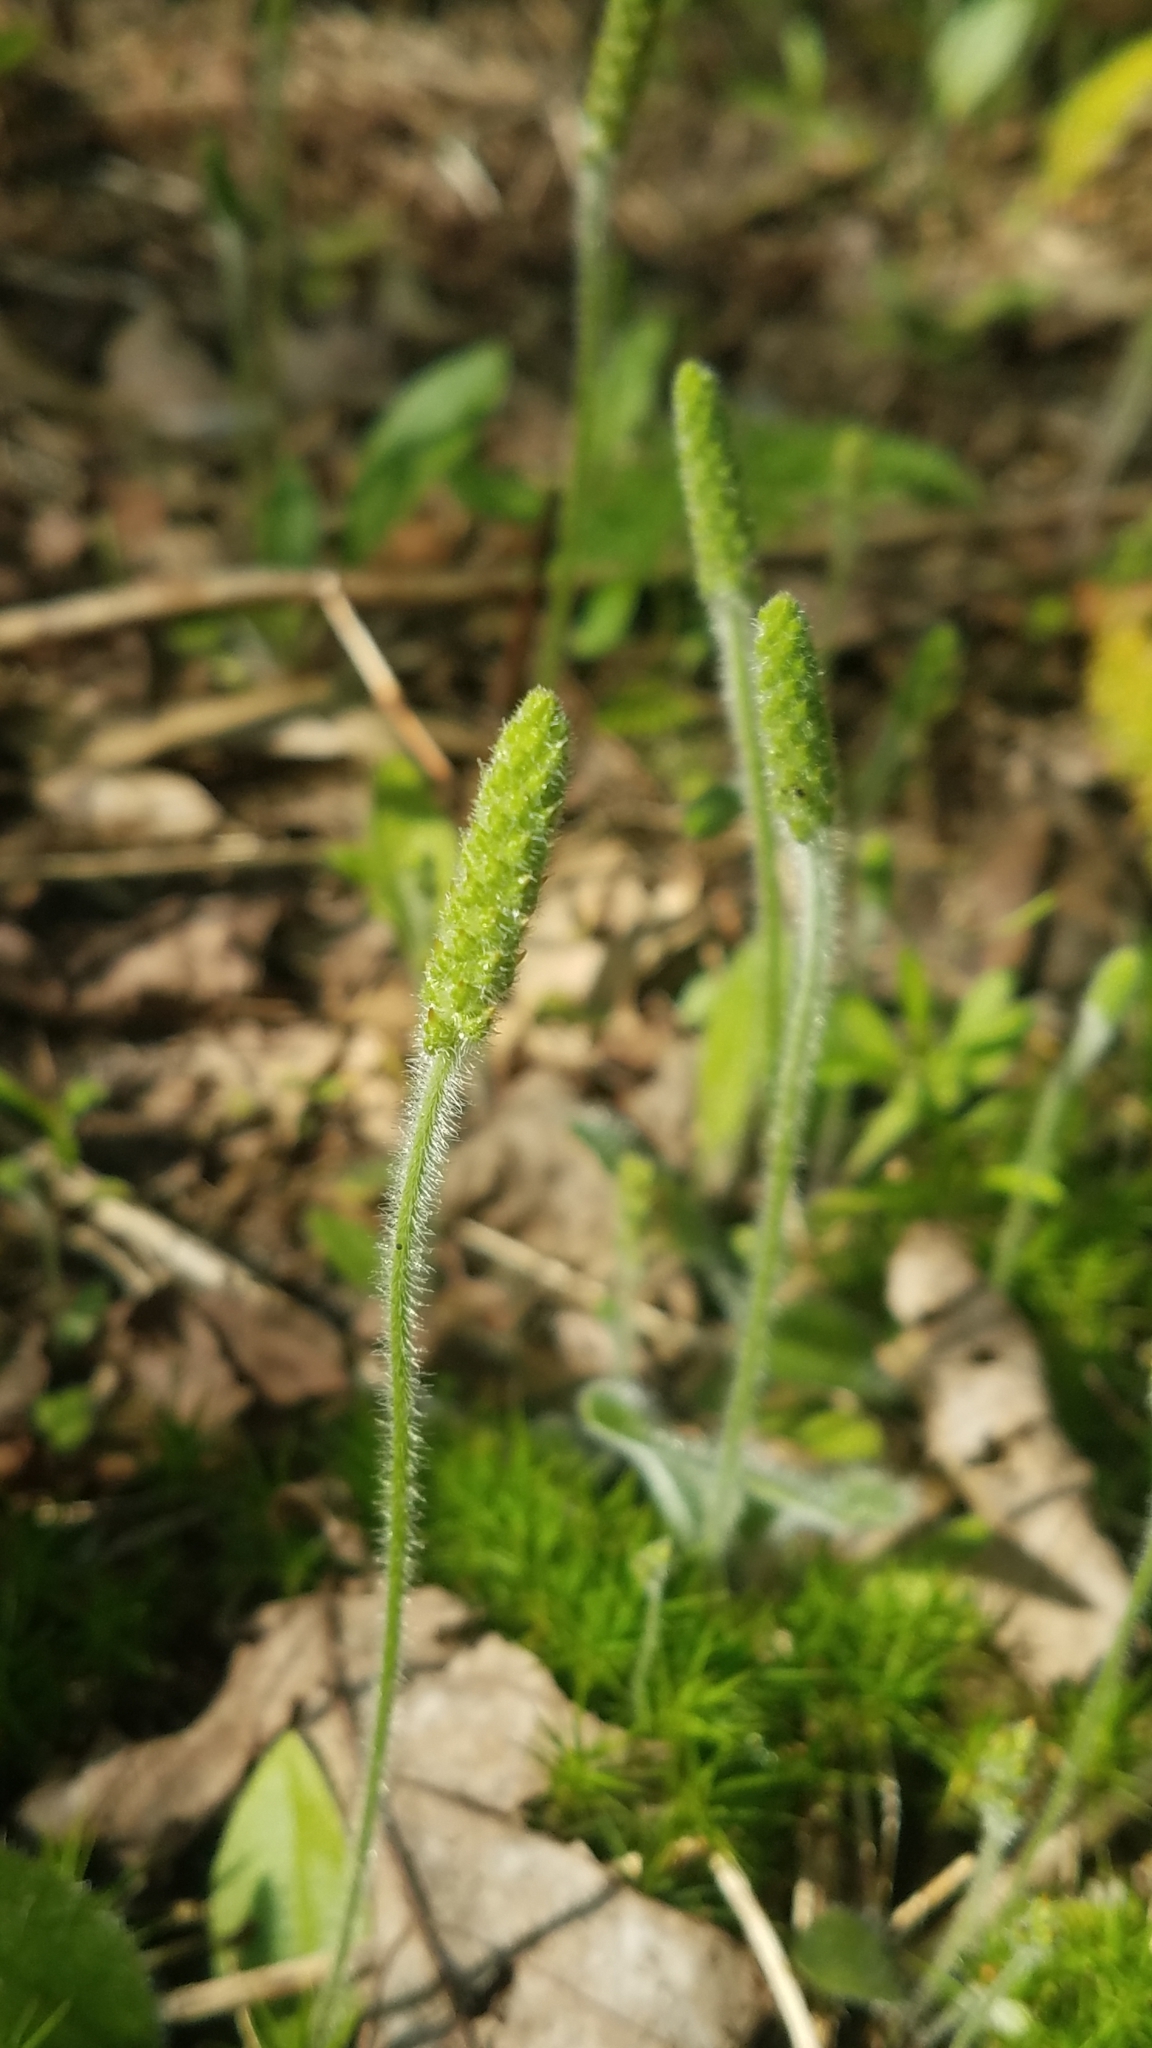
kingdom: Plantae
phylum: Tracheophyta
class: Magnoliopsida
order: Lamiales
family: Plantaginaceae
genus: Plantago
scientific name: Plantago virginica
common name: Hoary plantain
